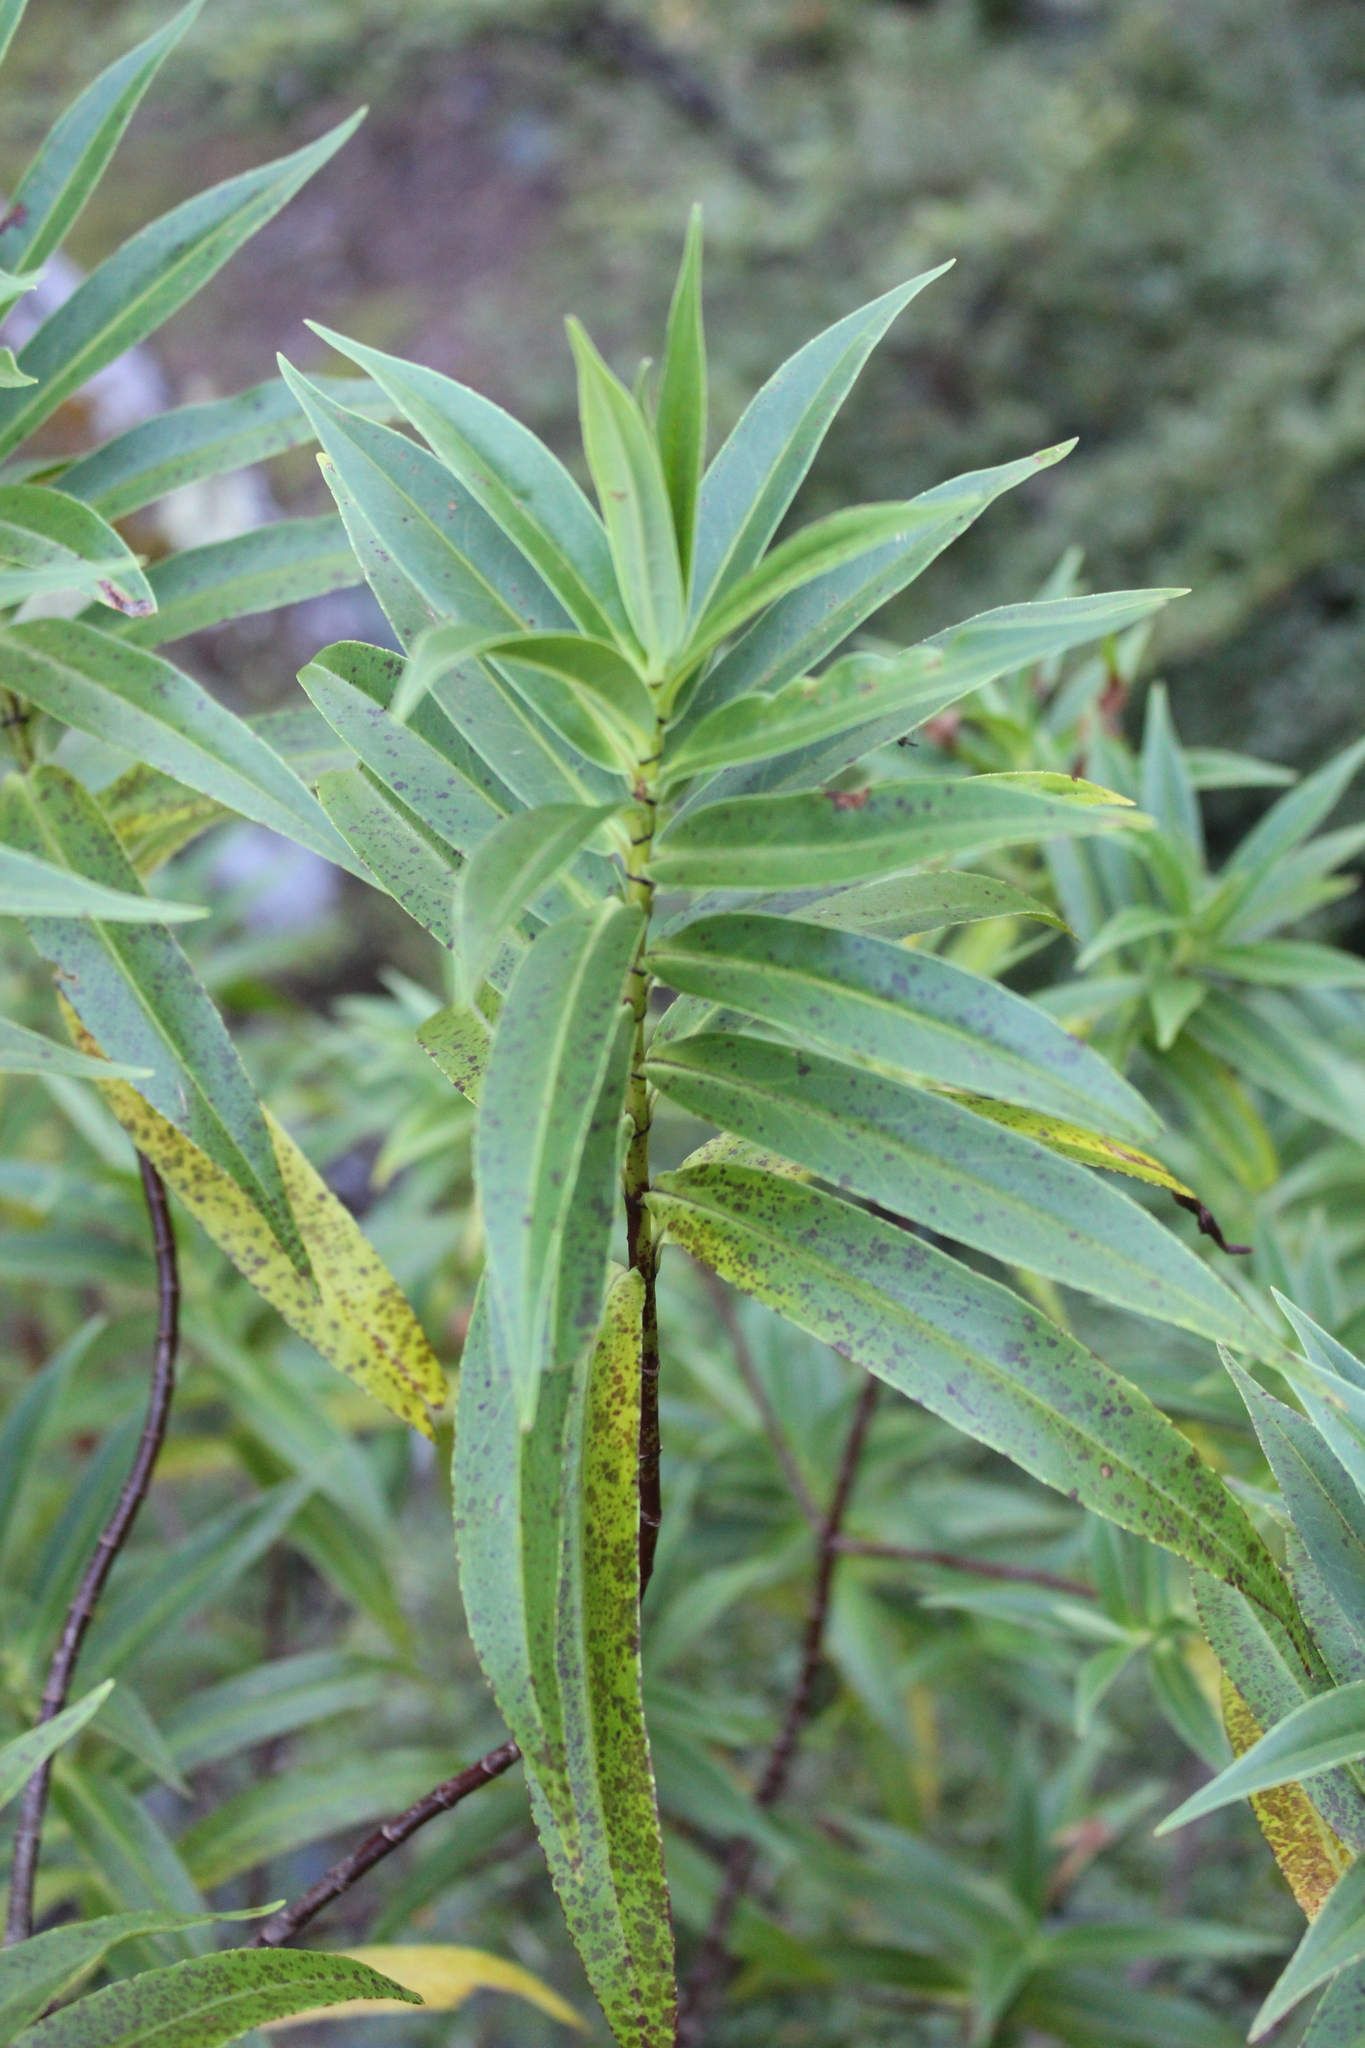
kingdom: Plantae
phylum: Tracheophyta
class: Magnoliopsida
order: Lamiales
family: Plantaginaceae
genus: Veronica
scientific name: Veronica salicifolia
